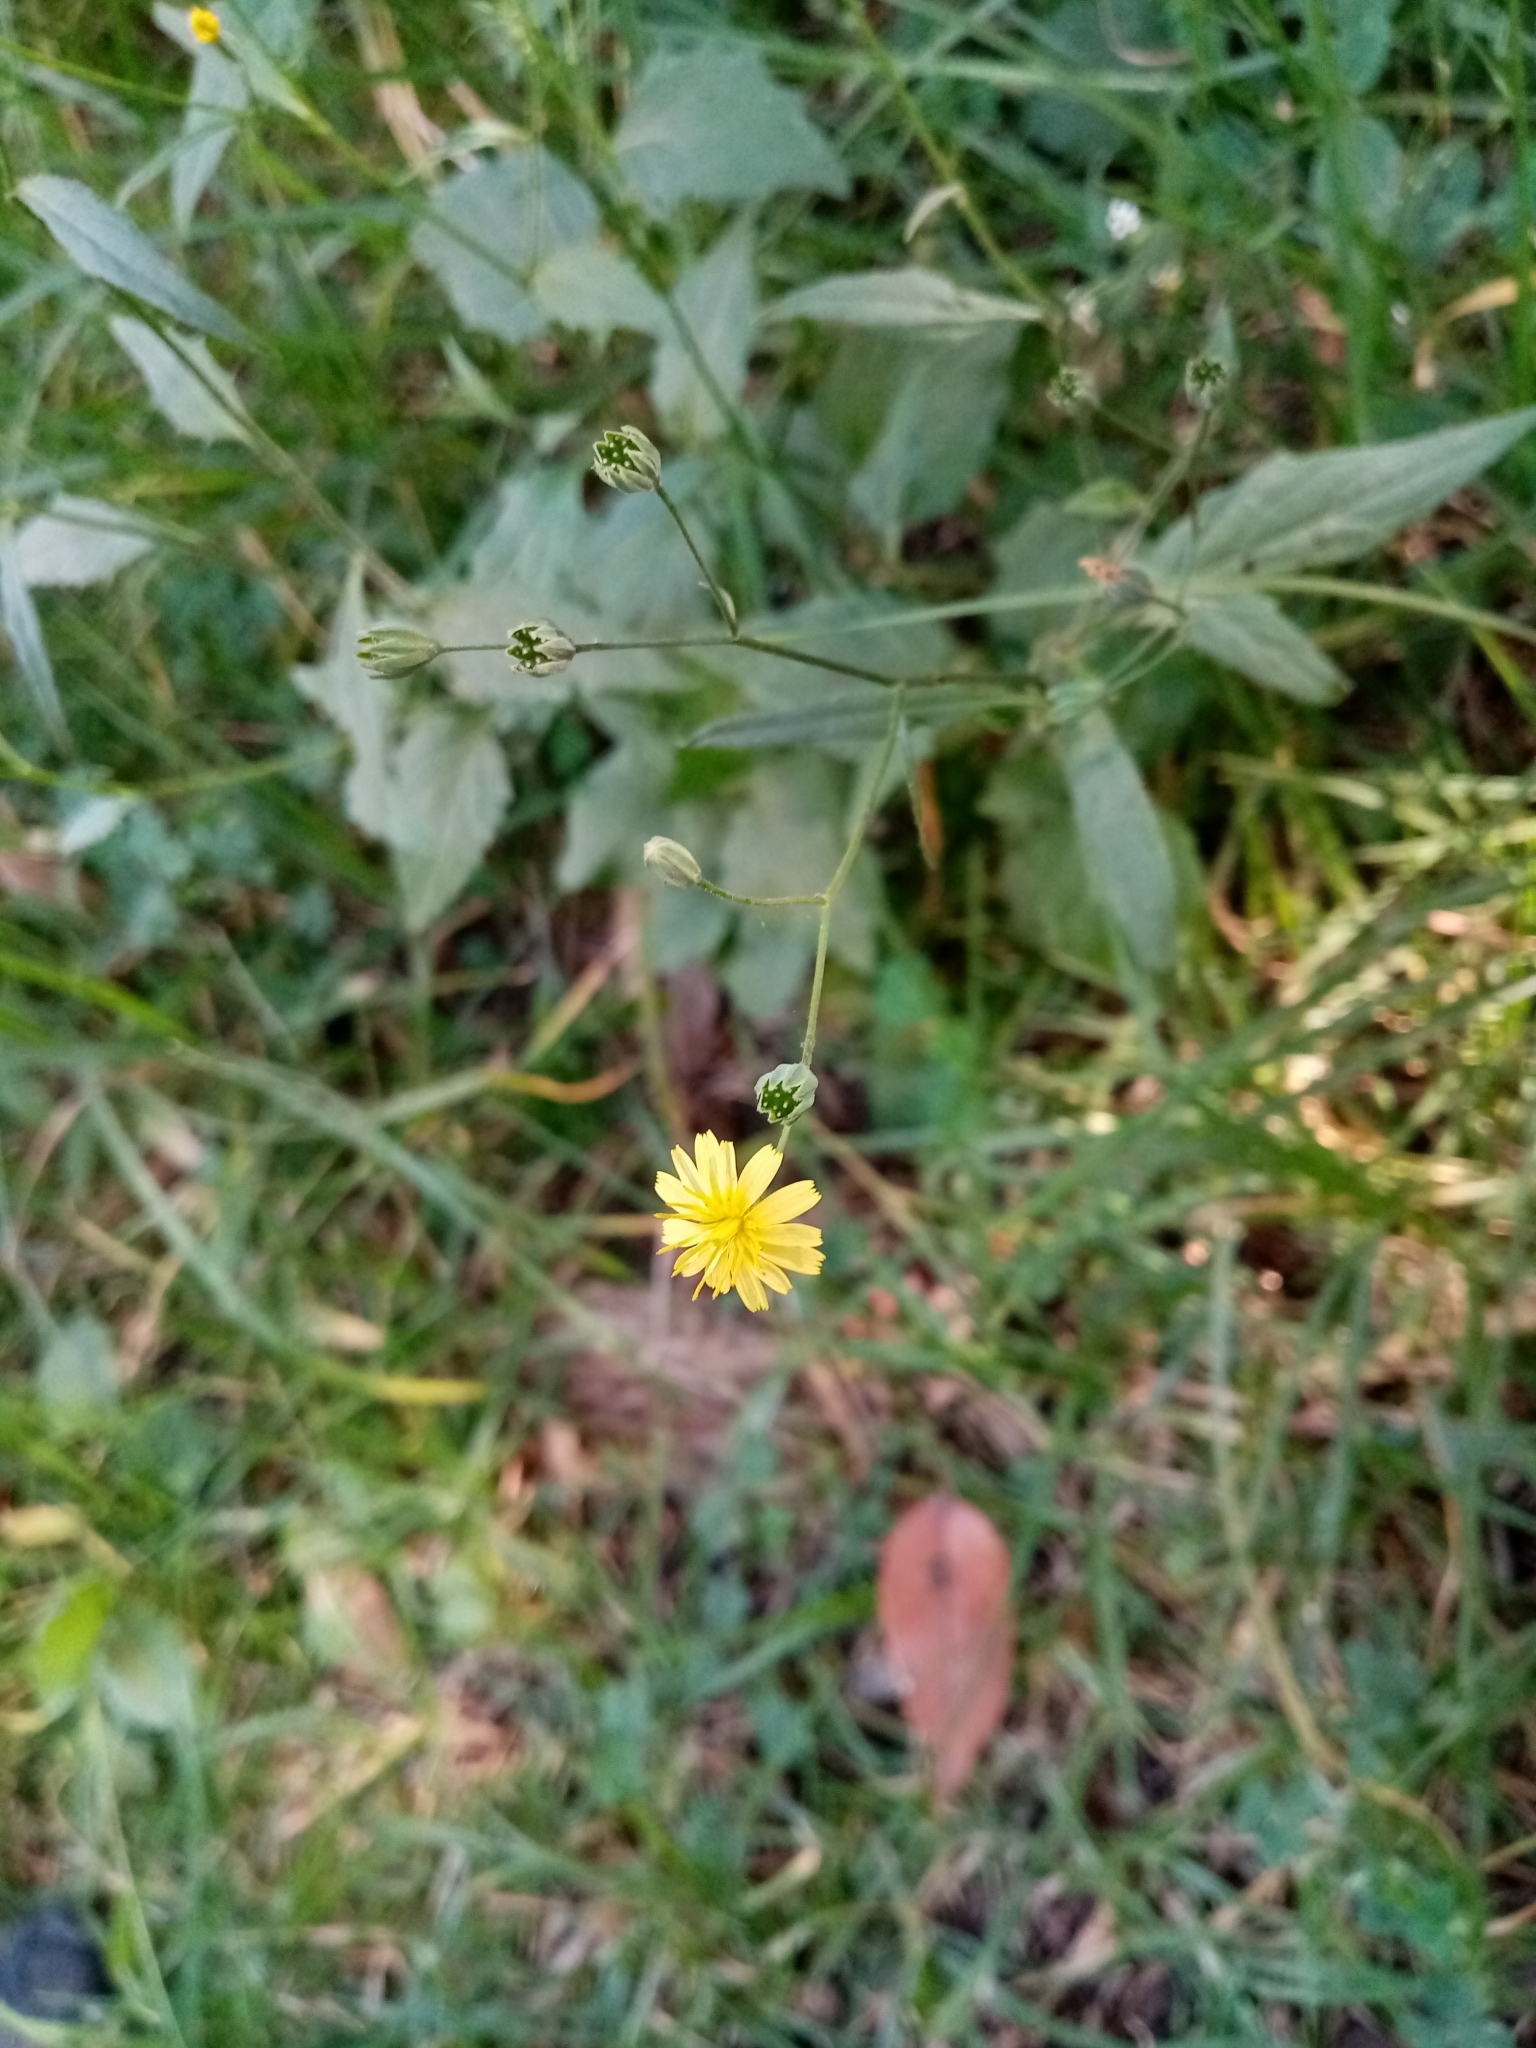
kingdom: Plantae
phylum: Tracheophyta
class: Magnoliopsida
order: Asterales
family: Asteraceae
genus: Lapsana
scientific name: Lapsana communis
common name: Nipplewort
